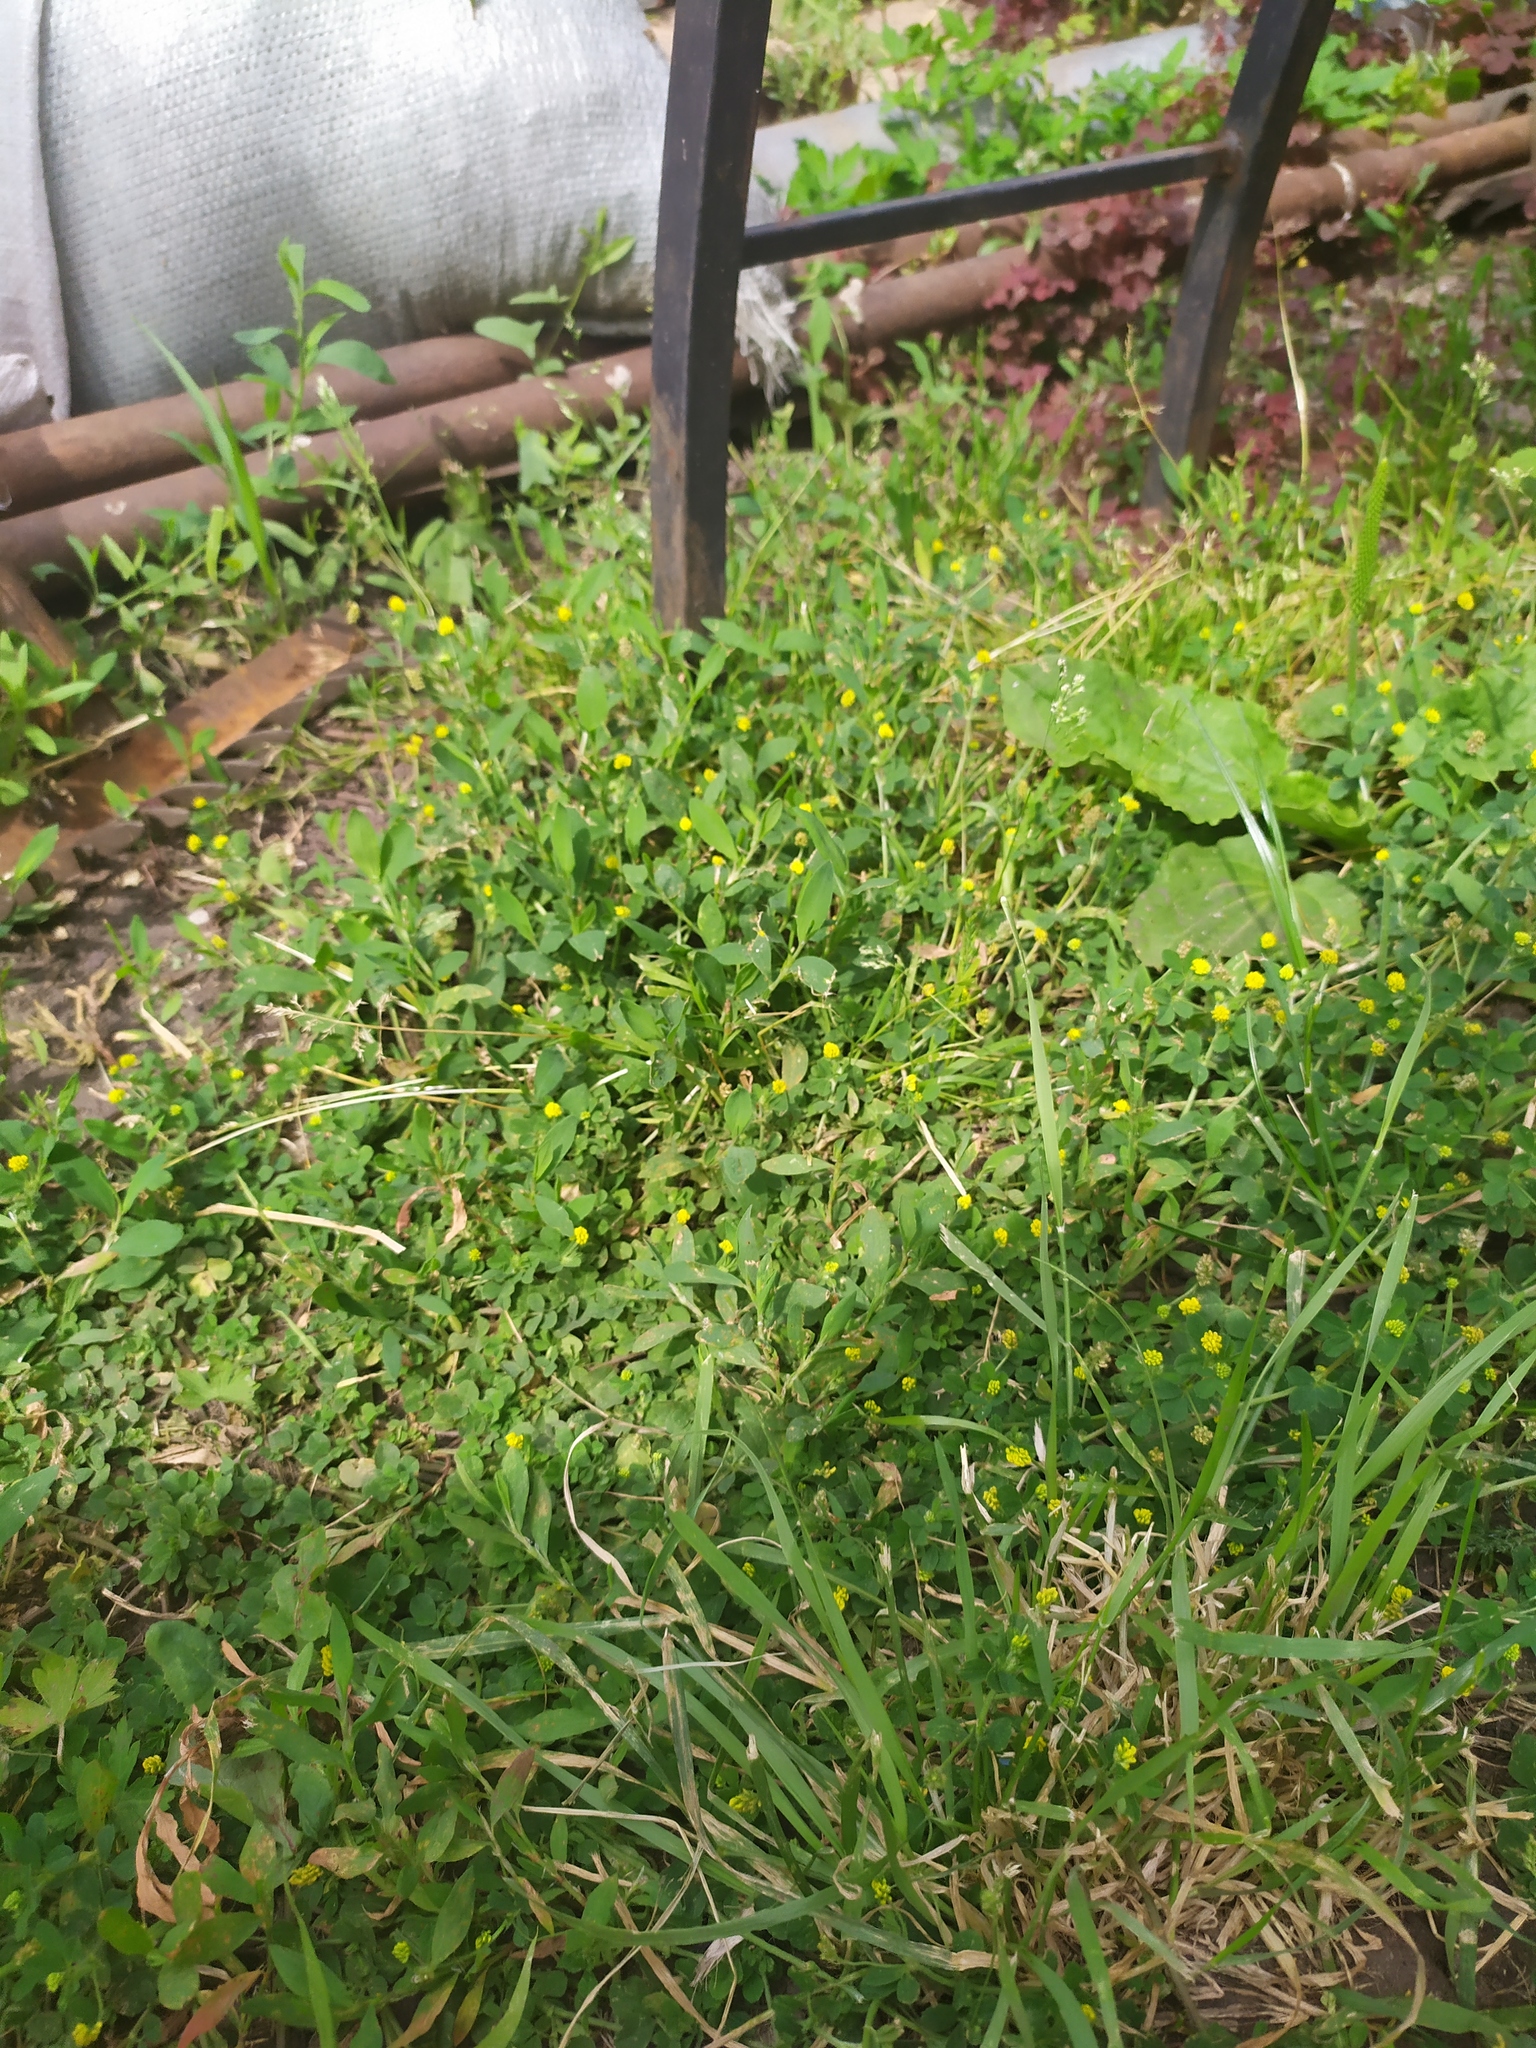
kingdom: Plantae
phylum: Tracheophyta
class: Magnoliopsida
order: Fabales
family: Fabaceae
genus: Medicago
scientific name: Medicago lupulina
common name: Black medick
